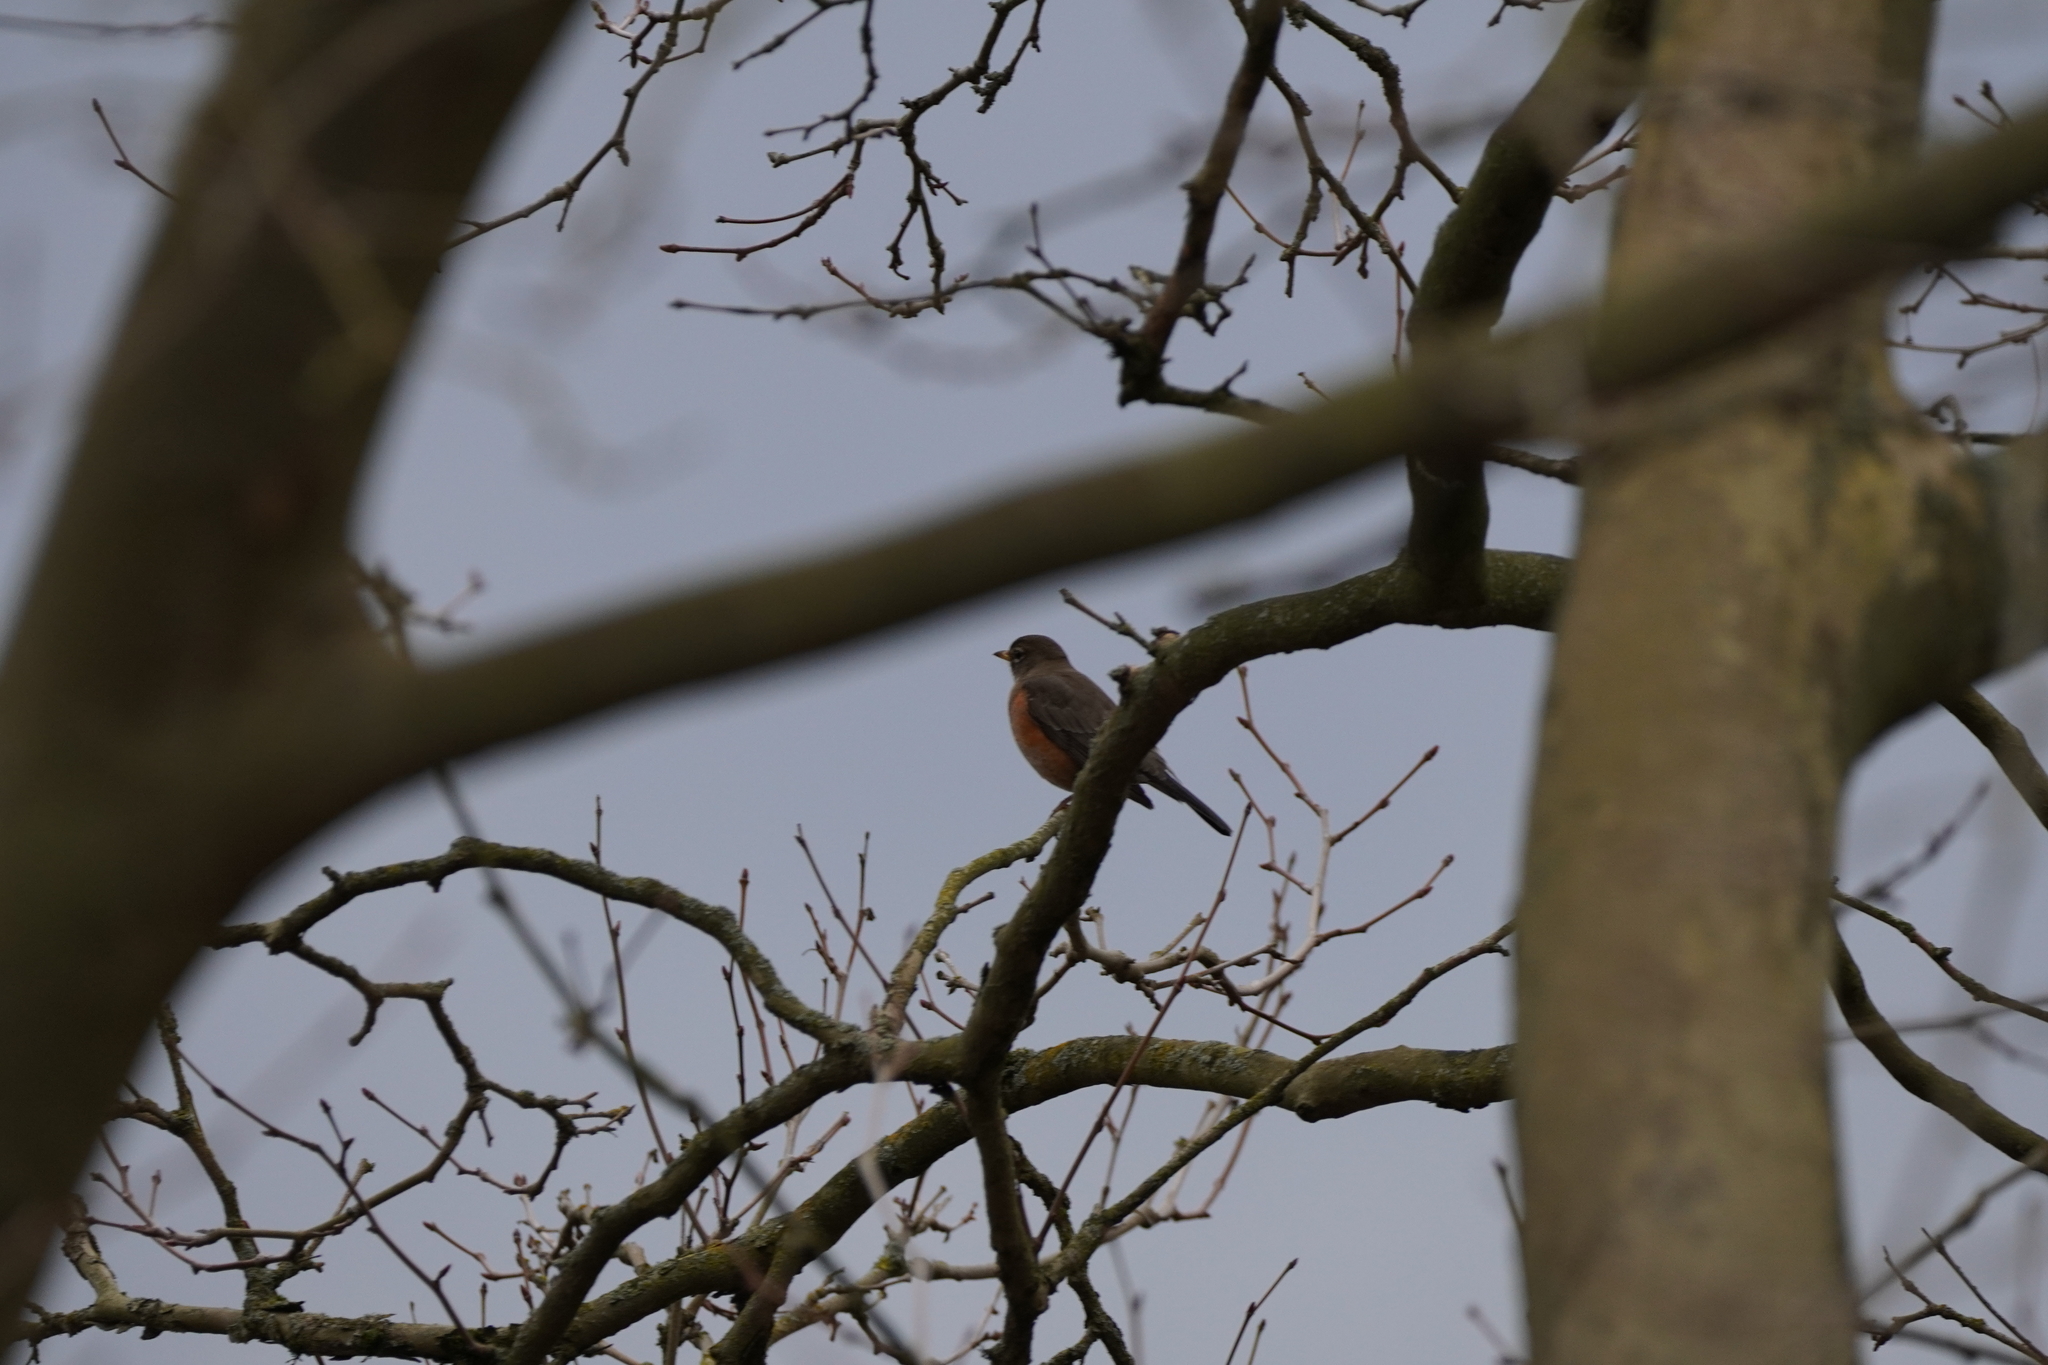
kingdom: Animalia
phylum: Chordata
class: Aves
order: Passeriformes
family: Turdidae
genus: Turdus
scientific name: Turdus migratorius
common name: American robin
